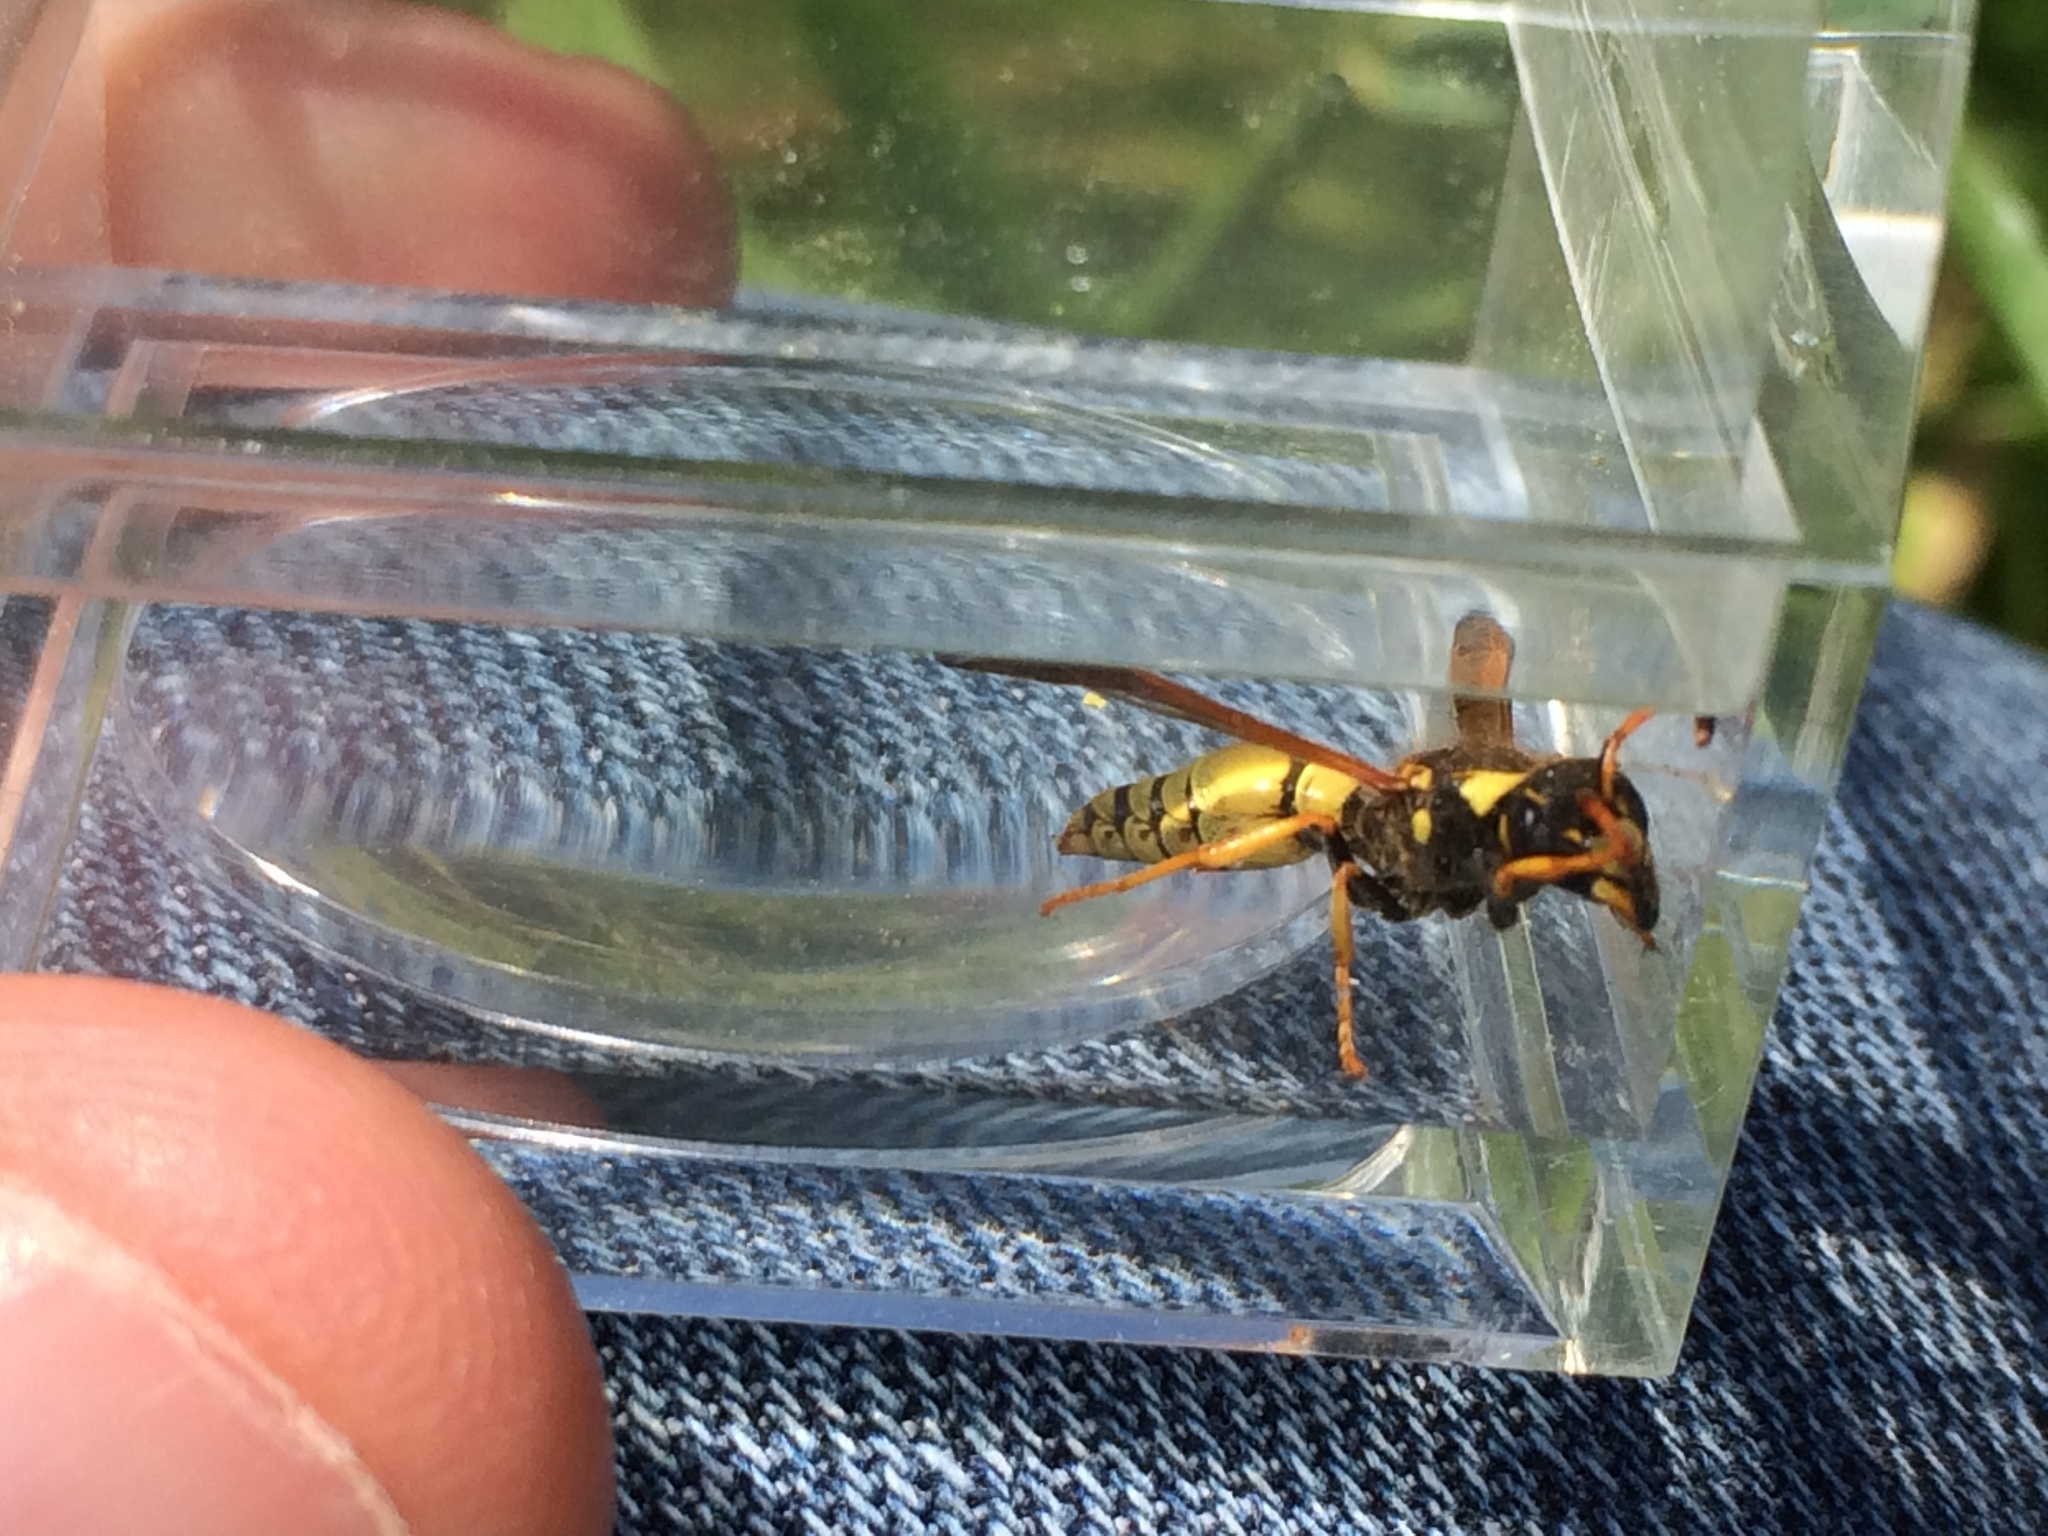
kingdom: Animalia
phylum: Arthropoda
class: Insecta
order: Hymenoptera
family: Vespidae
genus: Ancistrocerus
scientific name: Ancistrocerus lineativentris
